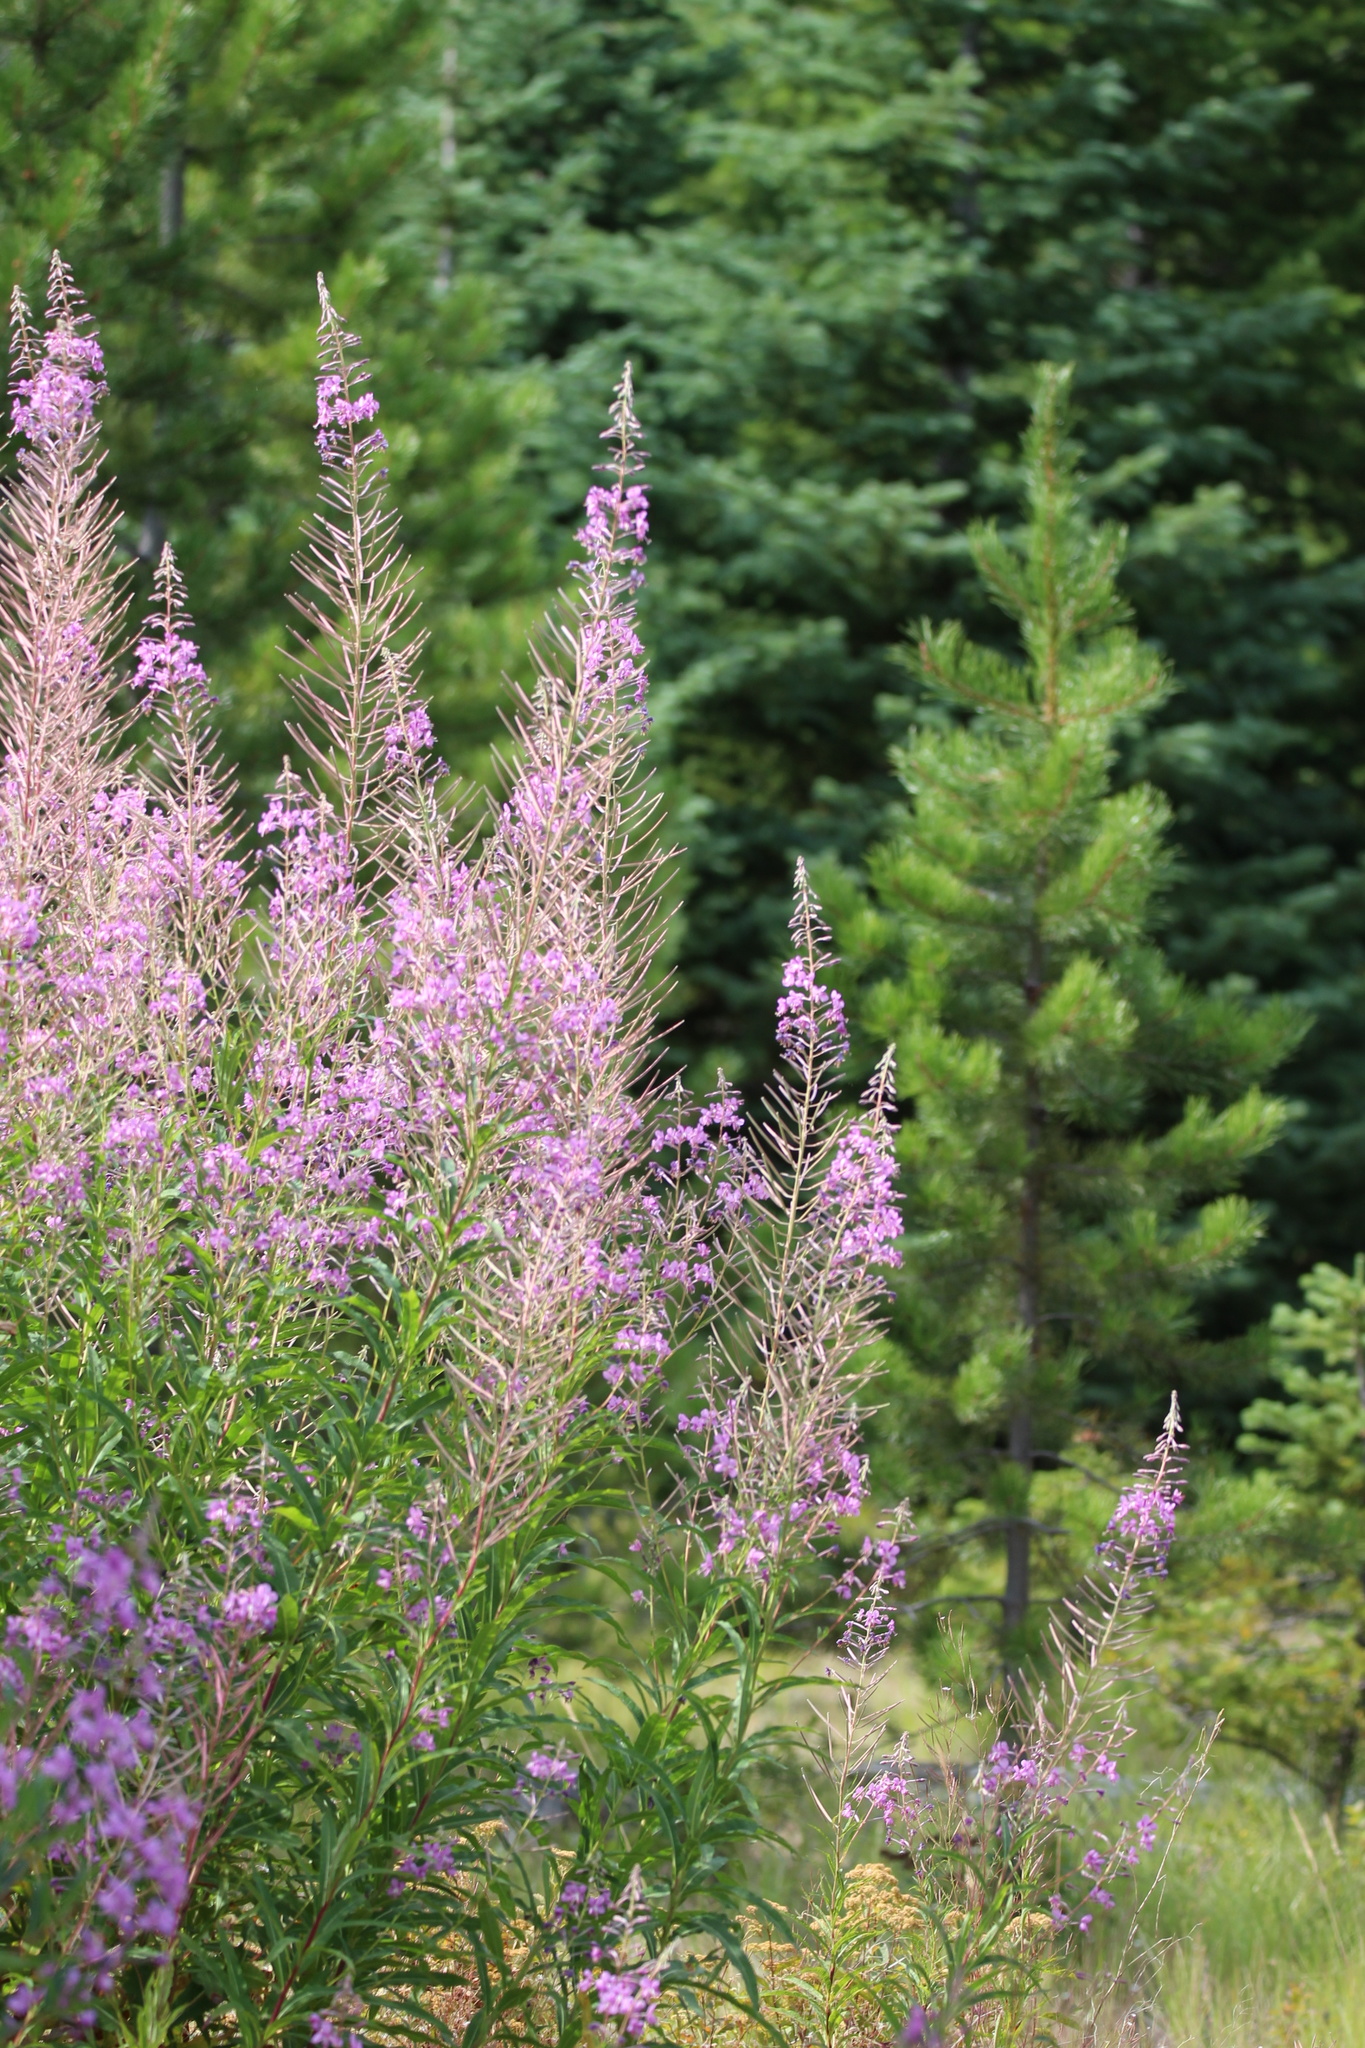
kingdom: Plantae
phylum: Tracheophyta
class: Magnoliopsida
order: Myrtales
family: Onagraceae
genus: Chamaenerion
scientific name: Chamaenerion angustifolium
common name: Fireweed
